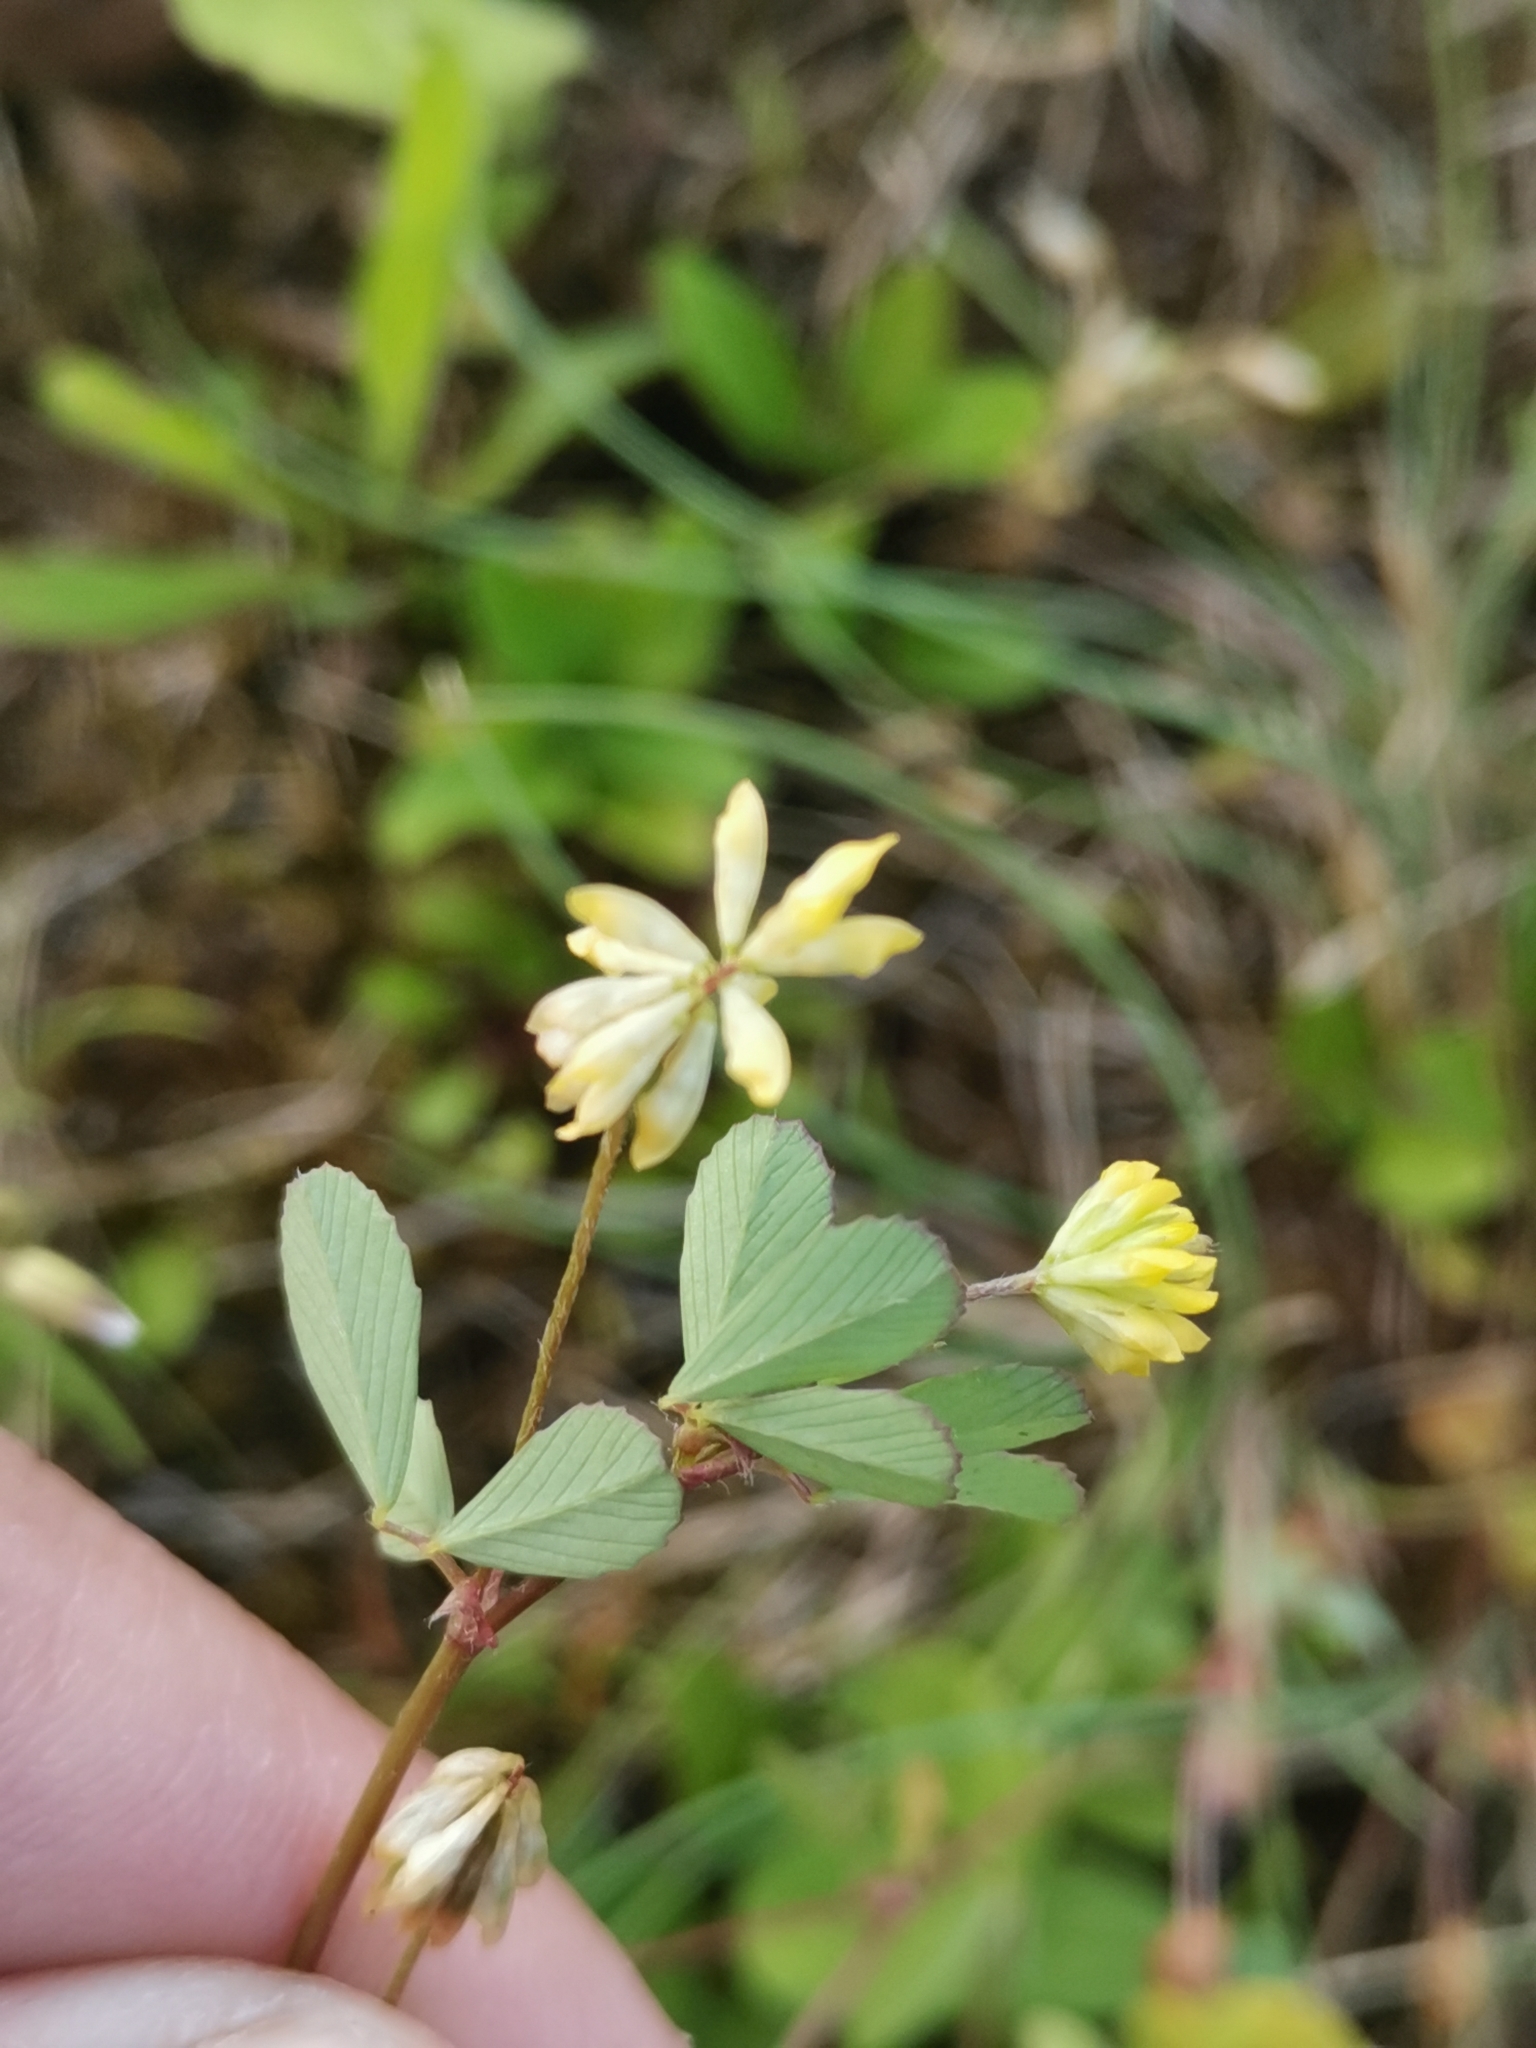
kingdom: Plantae
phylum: Tracheophyta
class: Magnoliopsida
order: Fabales
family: Fabaceae
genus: Trifolium
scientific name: Trifolium dubium
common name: Suckling clover
